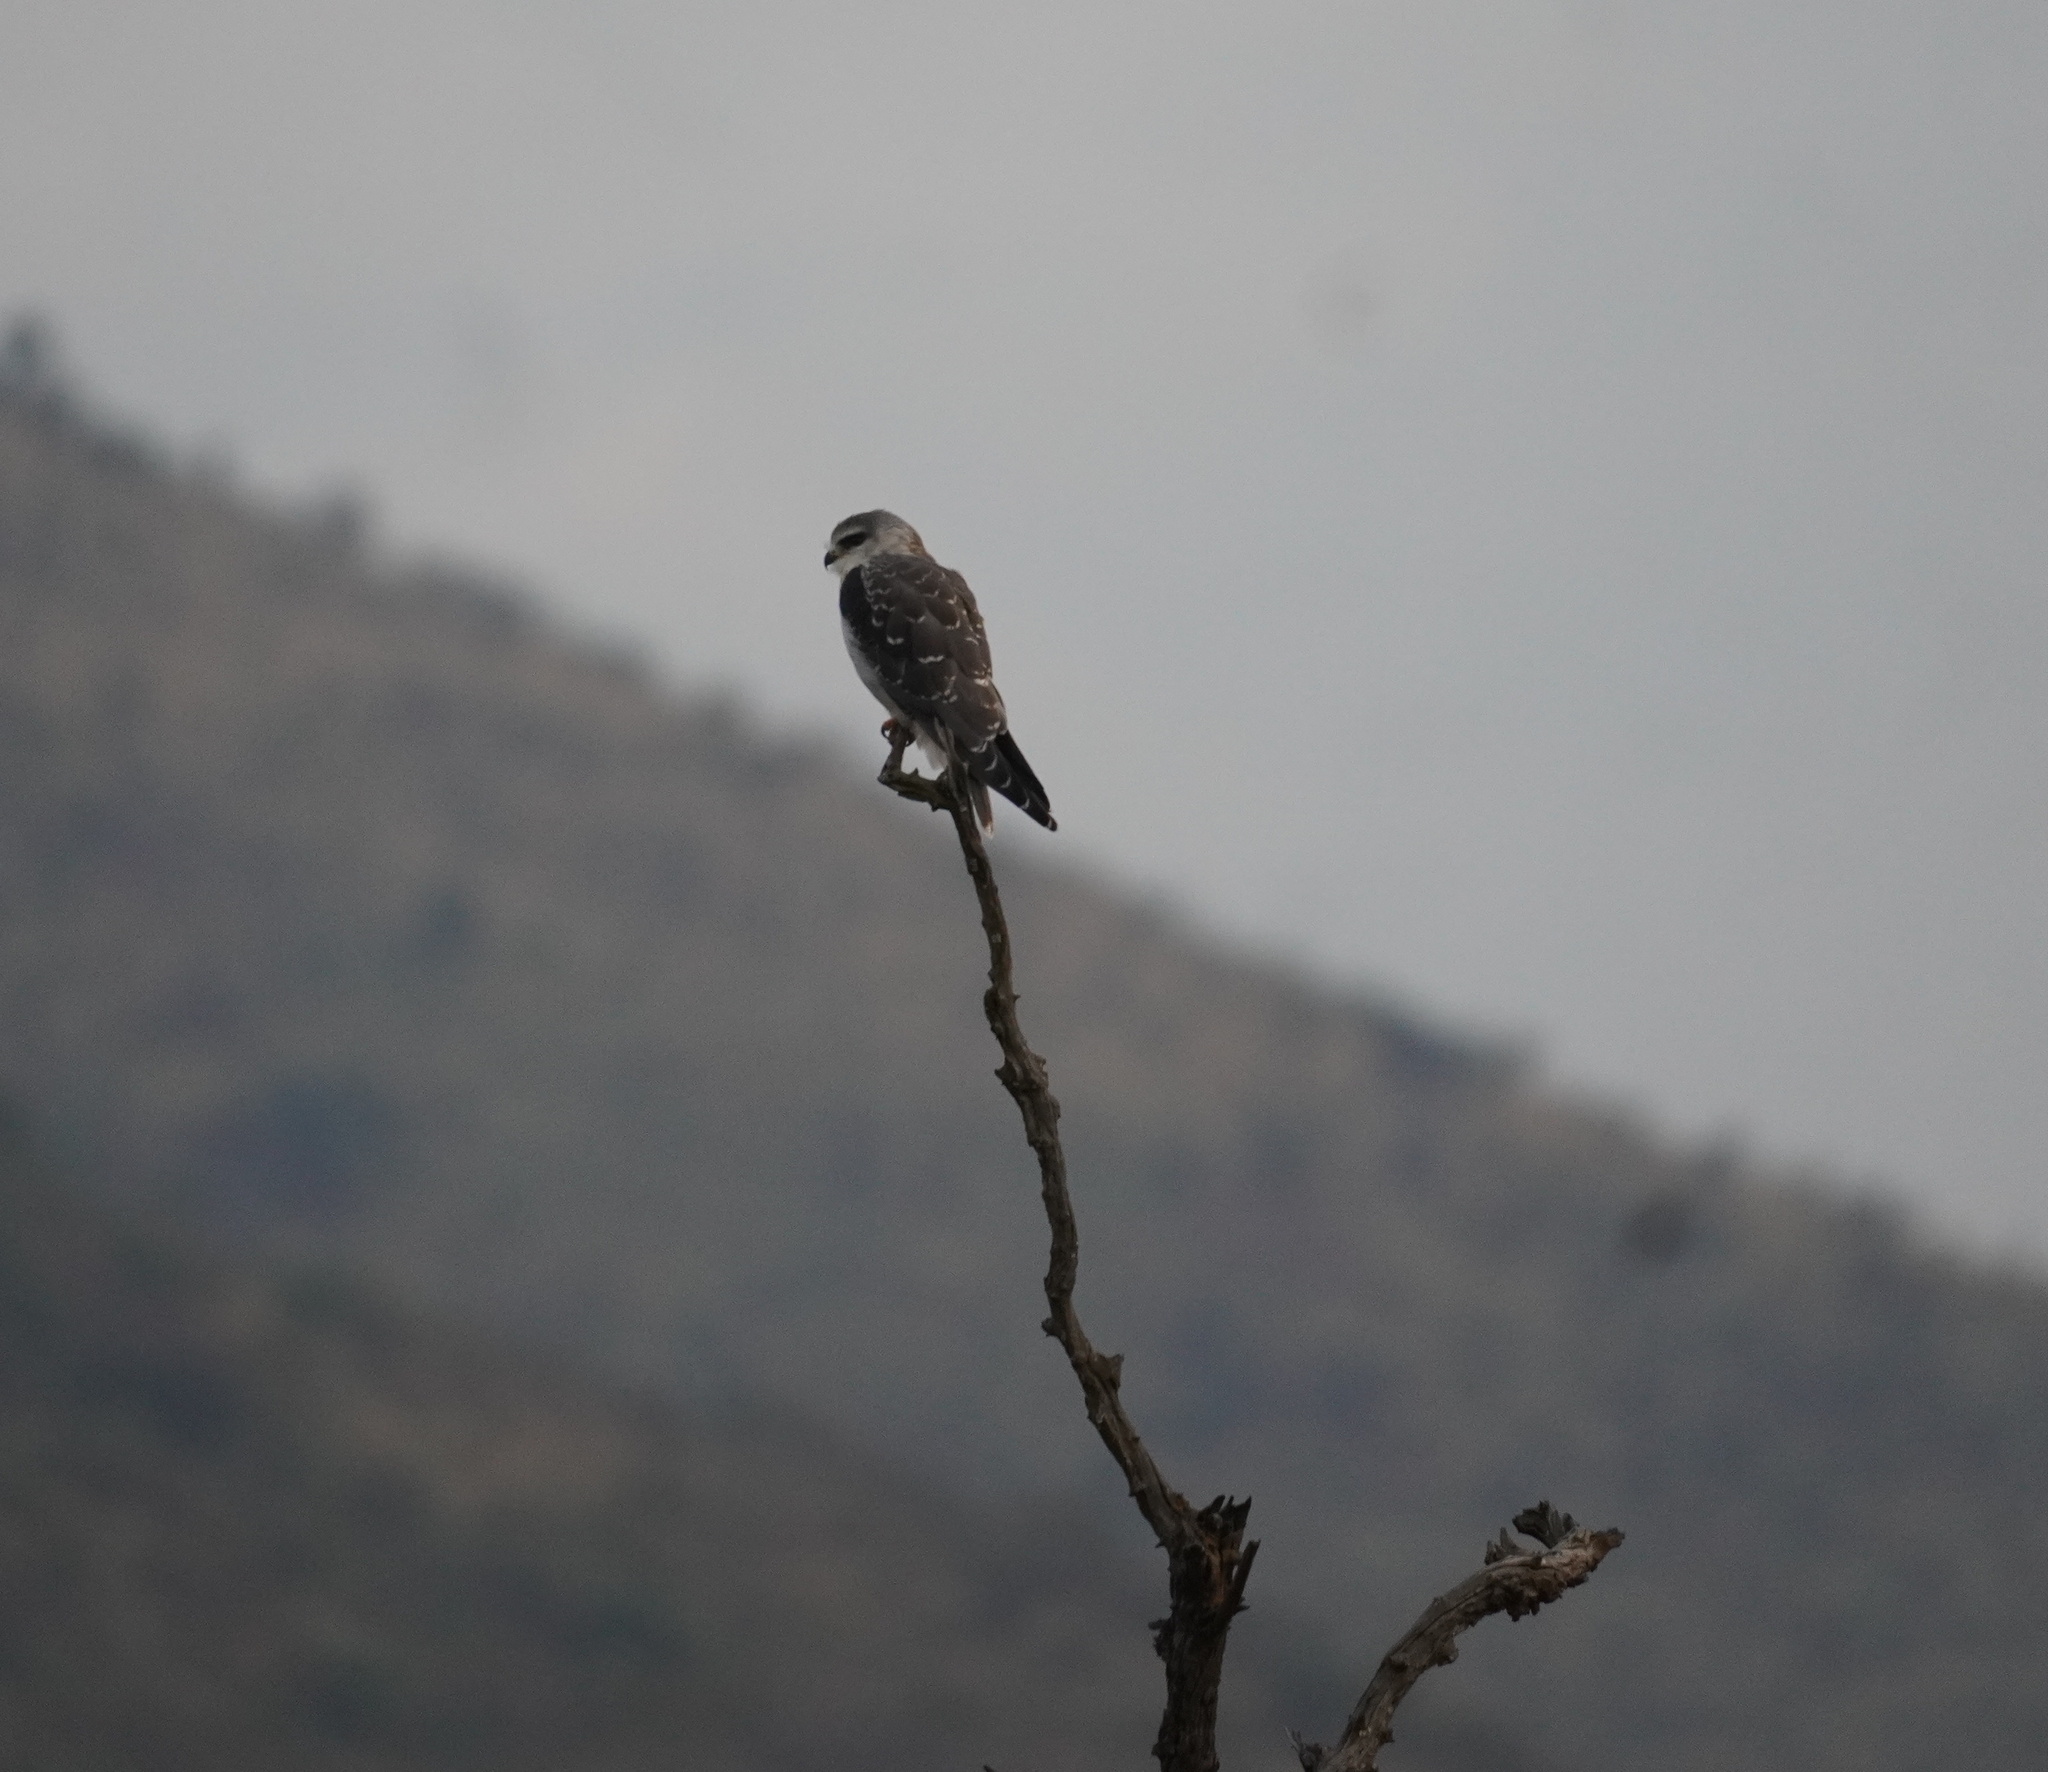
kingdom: Animalia
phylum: Chordata
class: Aves
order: Accipitriformes
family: Accipitridae
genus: Elanus
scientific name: Elanus caeruleus
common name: Black-winged kite
